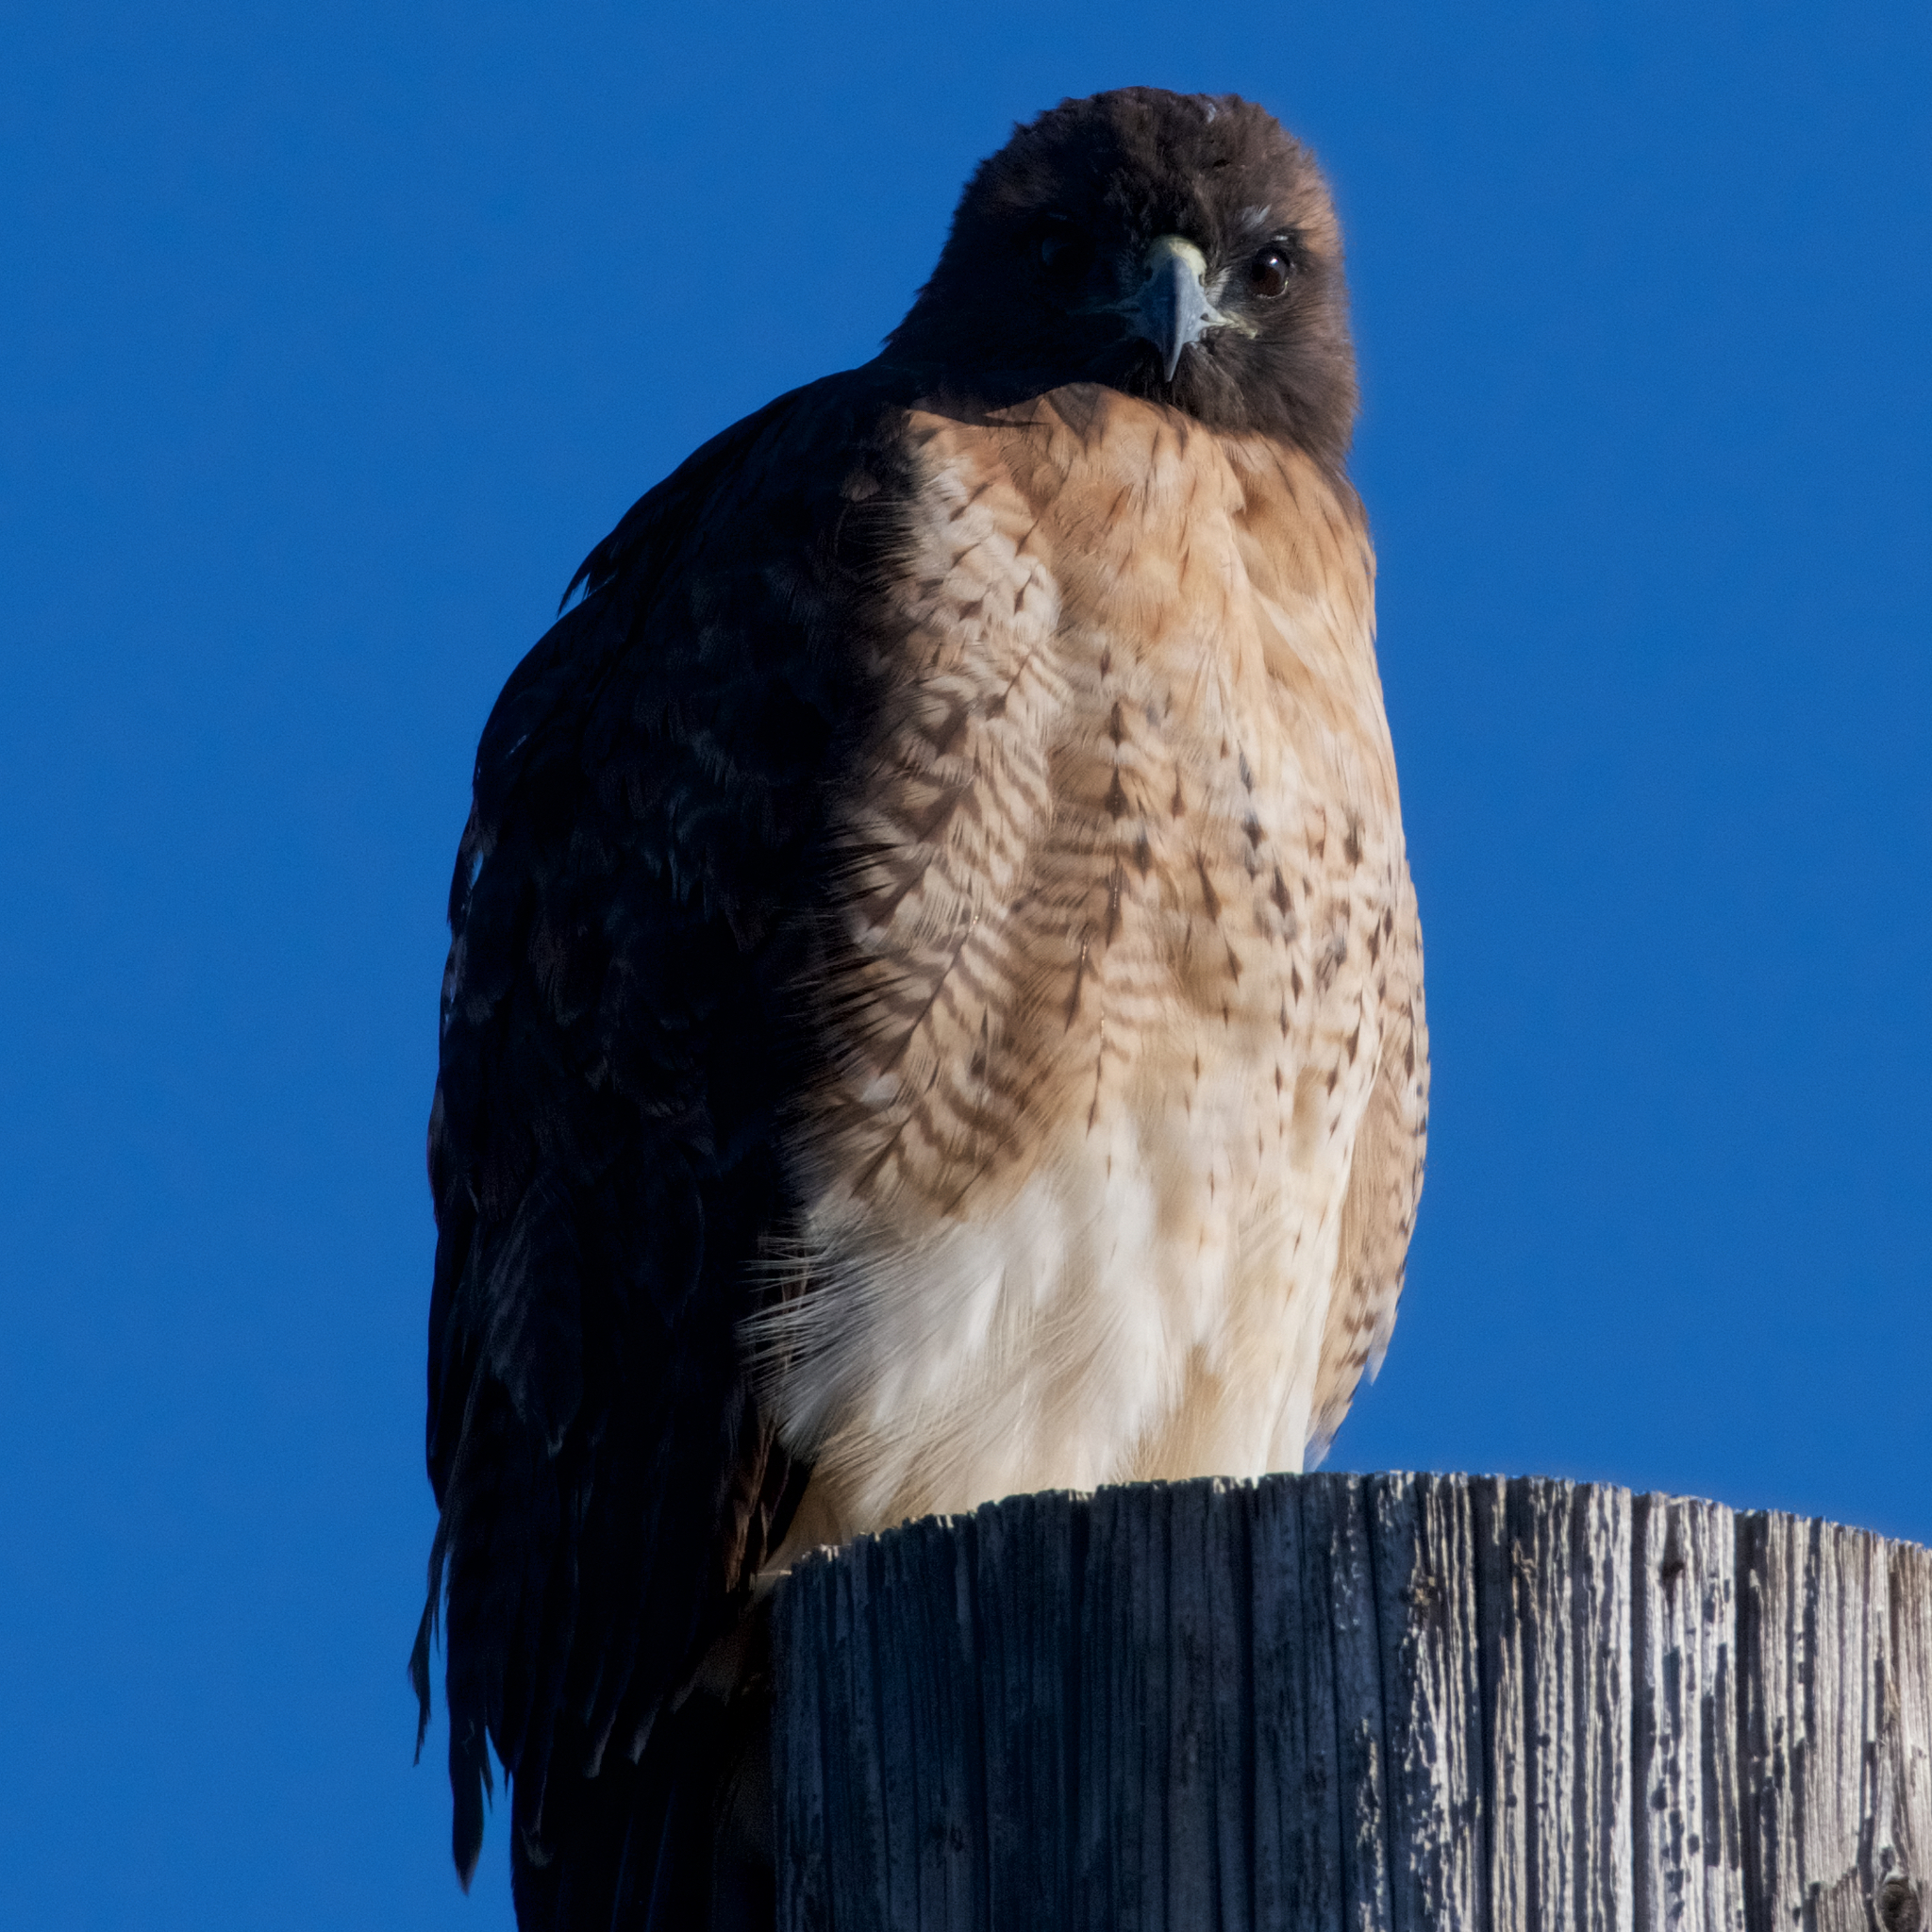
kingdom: Animalia
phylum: Chordata
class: Aves
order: Accipitriformes
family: Accipitridae
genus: Buteo
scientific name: Buteo jamaicensis
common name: Red-tailed hawk
